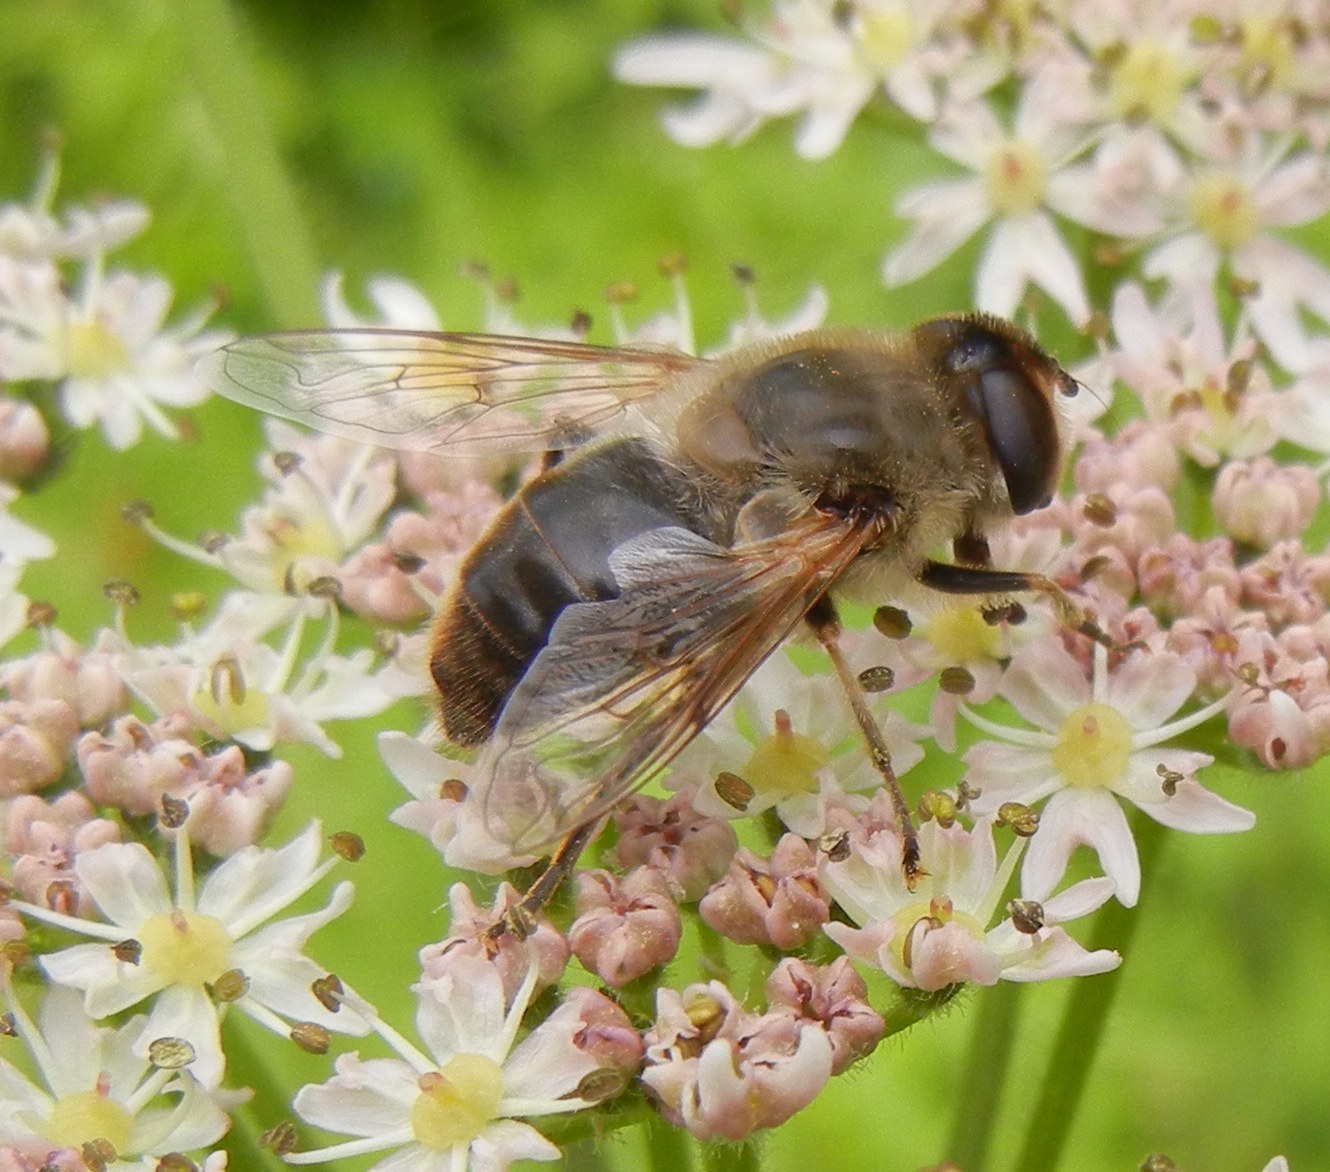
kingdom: Animalia
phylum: Arthropoda
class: Insecta
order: Diptera
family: Syrphidae
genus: Eristalis
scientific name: Eristalis tenax
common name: Drone fly
